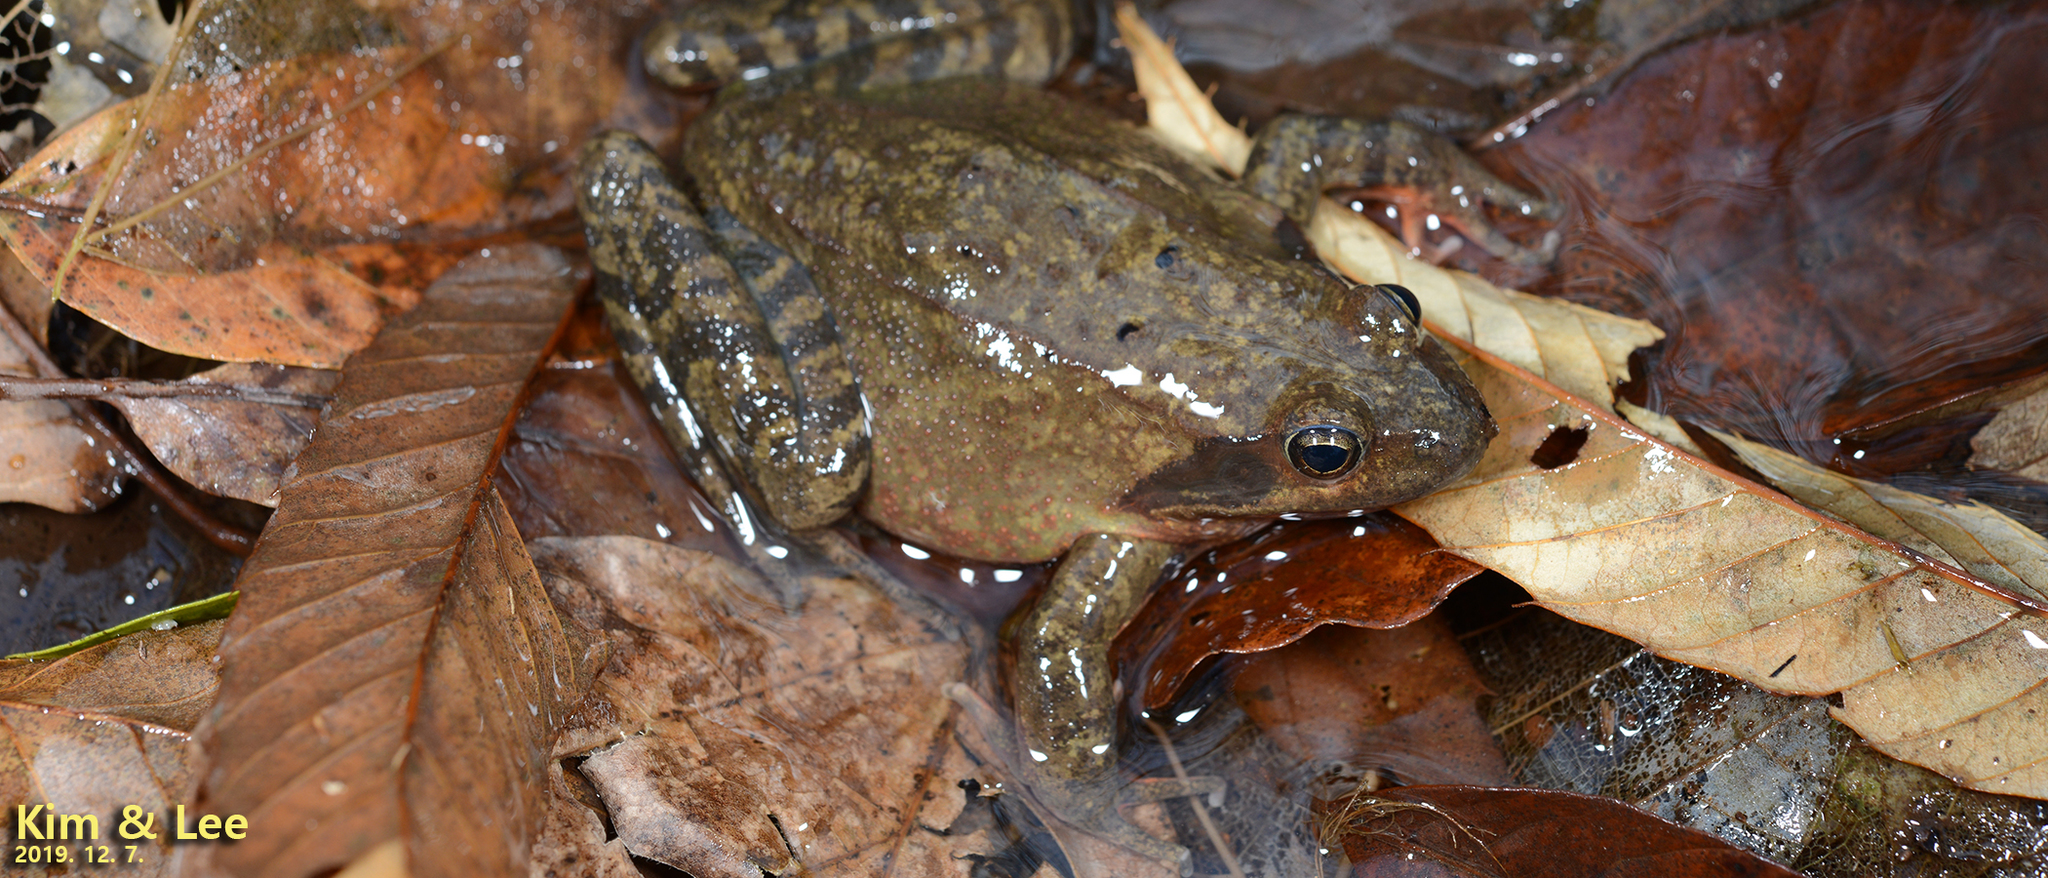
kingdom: Animalia
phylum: Chordata
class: Amphibia
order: Anura
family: Ranidae
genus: Rana
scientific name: Rana dybowskii
